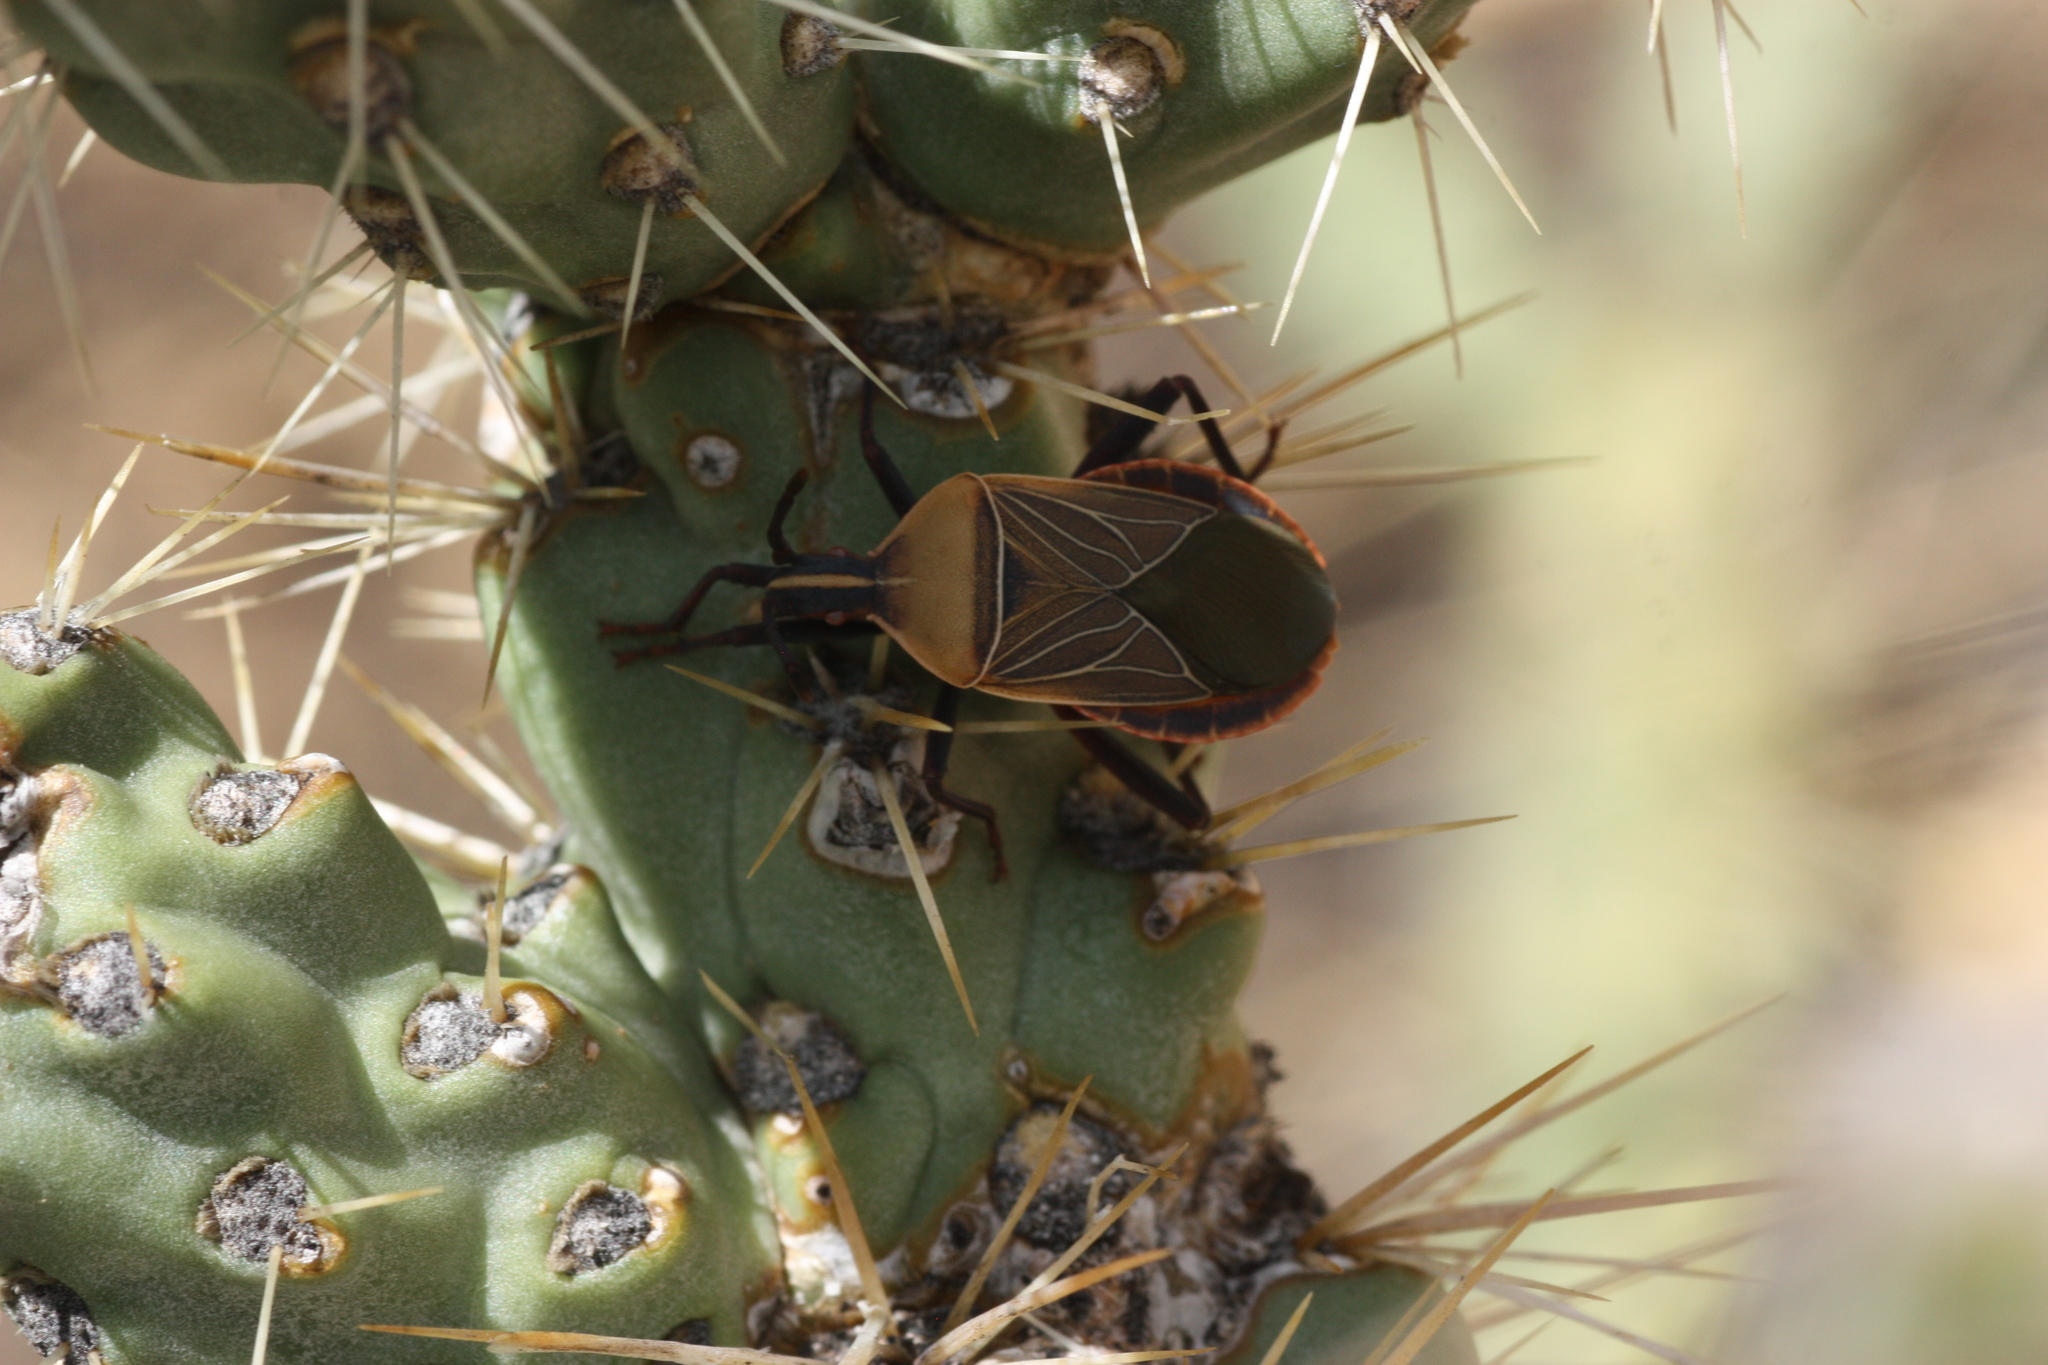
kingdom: Animalia
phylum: Arthropoda
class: Insecta
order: Hemiptera
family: Coreidae
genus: Chelinidea
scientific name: Chelinidea vittiger
